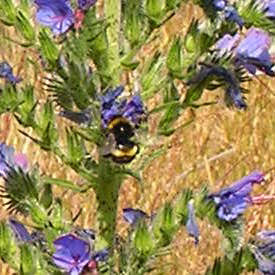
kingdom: Plantae
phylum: Tracheophyta
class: Magnoliopsida
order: Boraginales
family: Boraginaceae
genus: Echium
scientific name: Echium vulgare
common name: Common viper's bugloss
